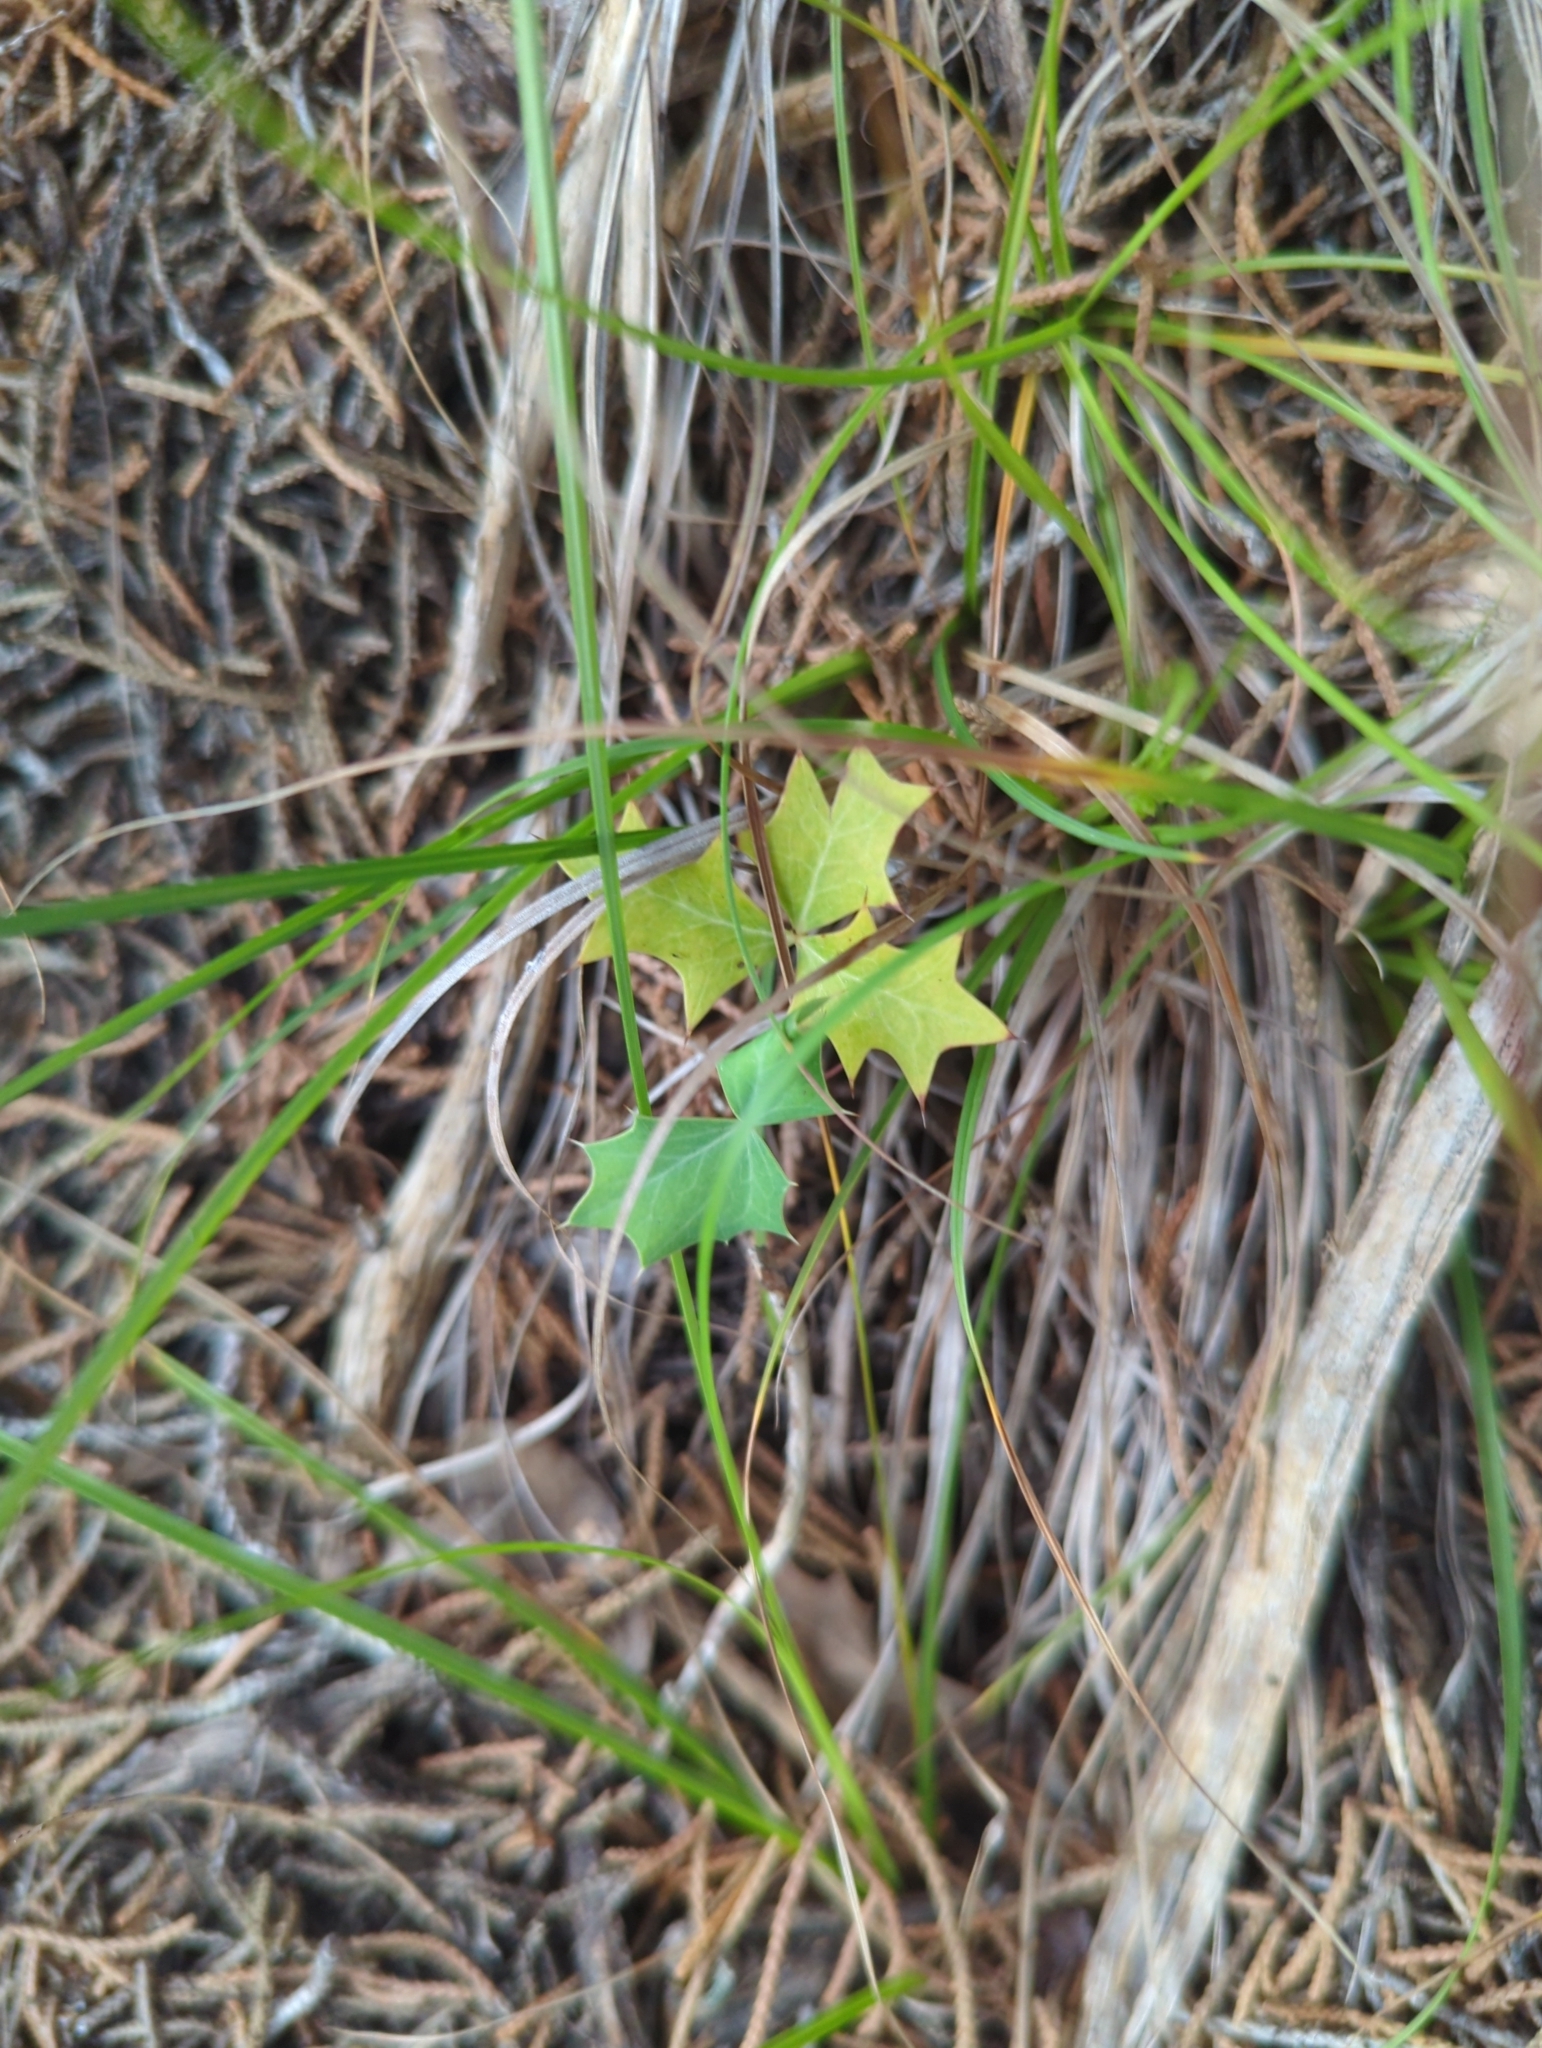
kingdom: Plantae
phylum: Tracheophyta
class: Magnoliopsida
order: Ranunculales
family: Berberidaceae
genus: Alloberberis
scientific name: Alloberberis trifoliolata
